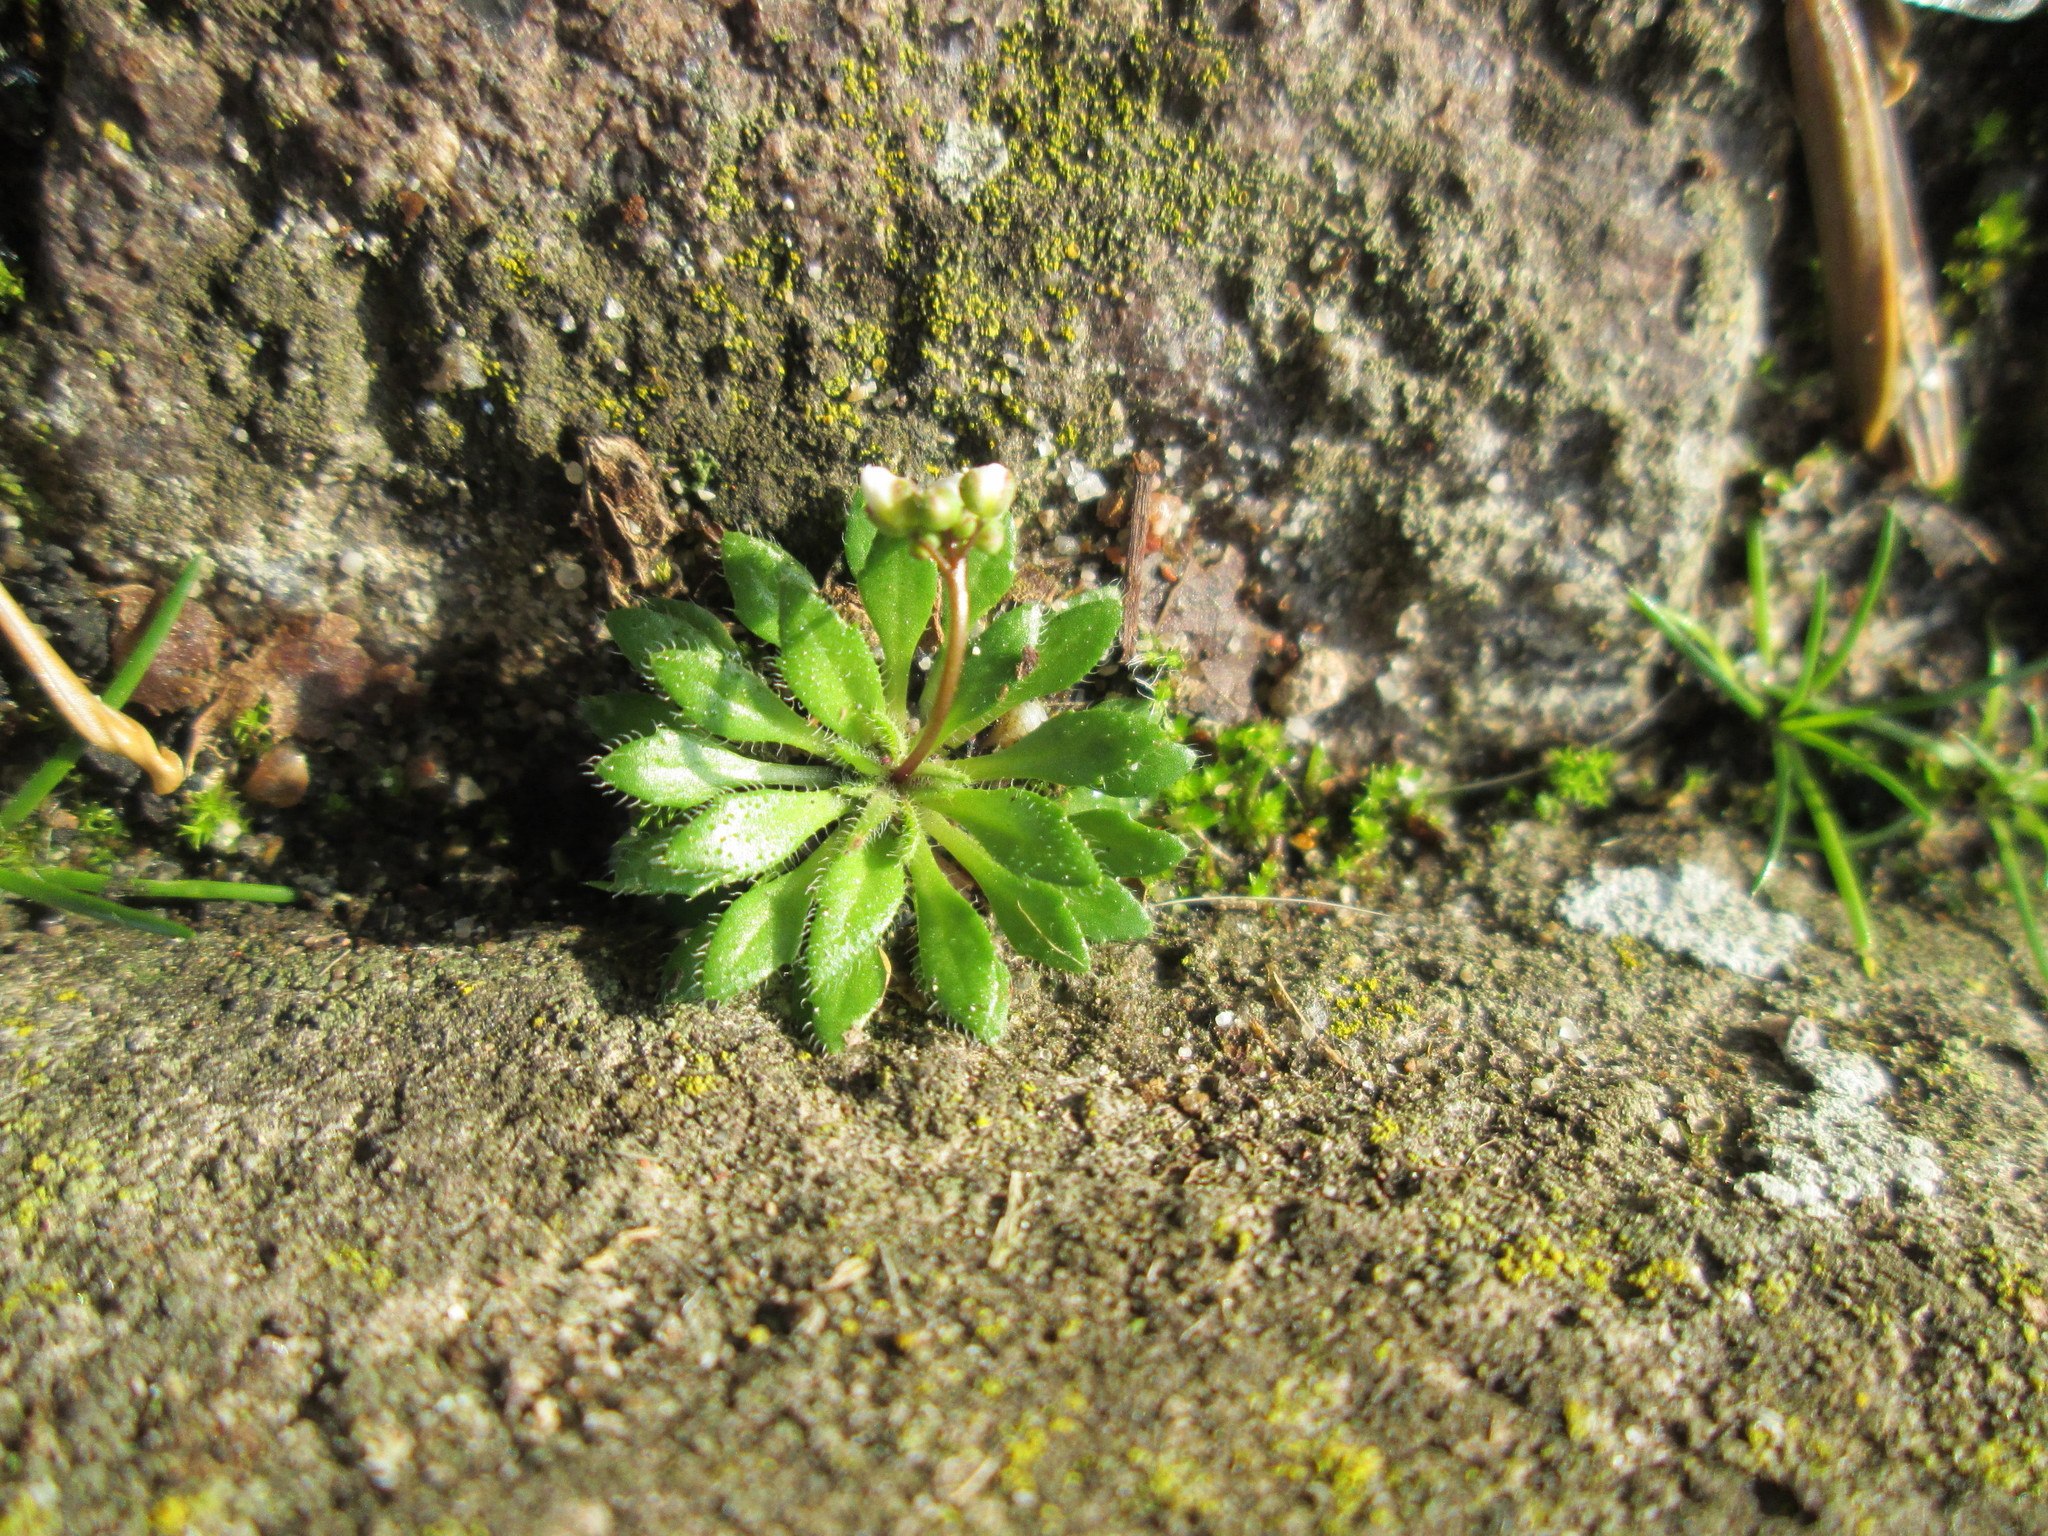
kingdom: Plantae
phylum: Tracheophyta
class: Magnoliopsida
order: Brassicales
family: Brassicaceae
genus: Draba
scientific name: Draba verna
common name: Spring draba
